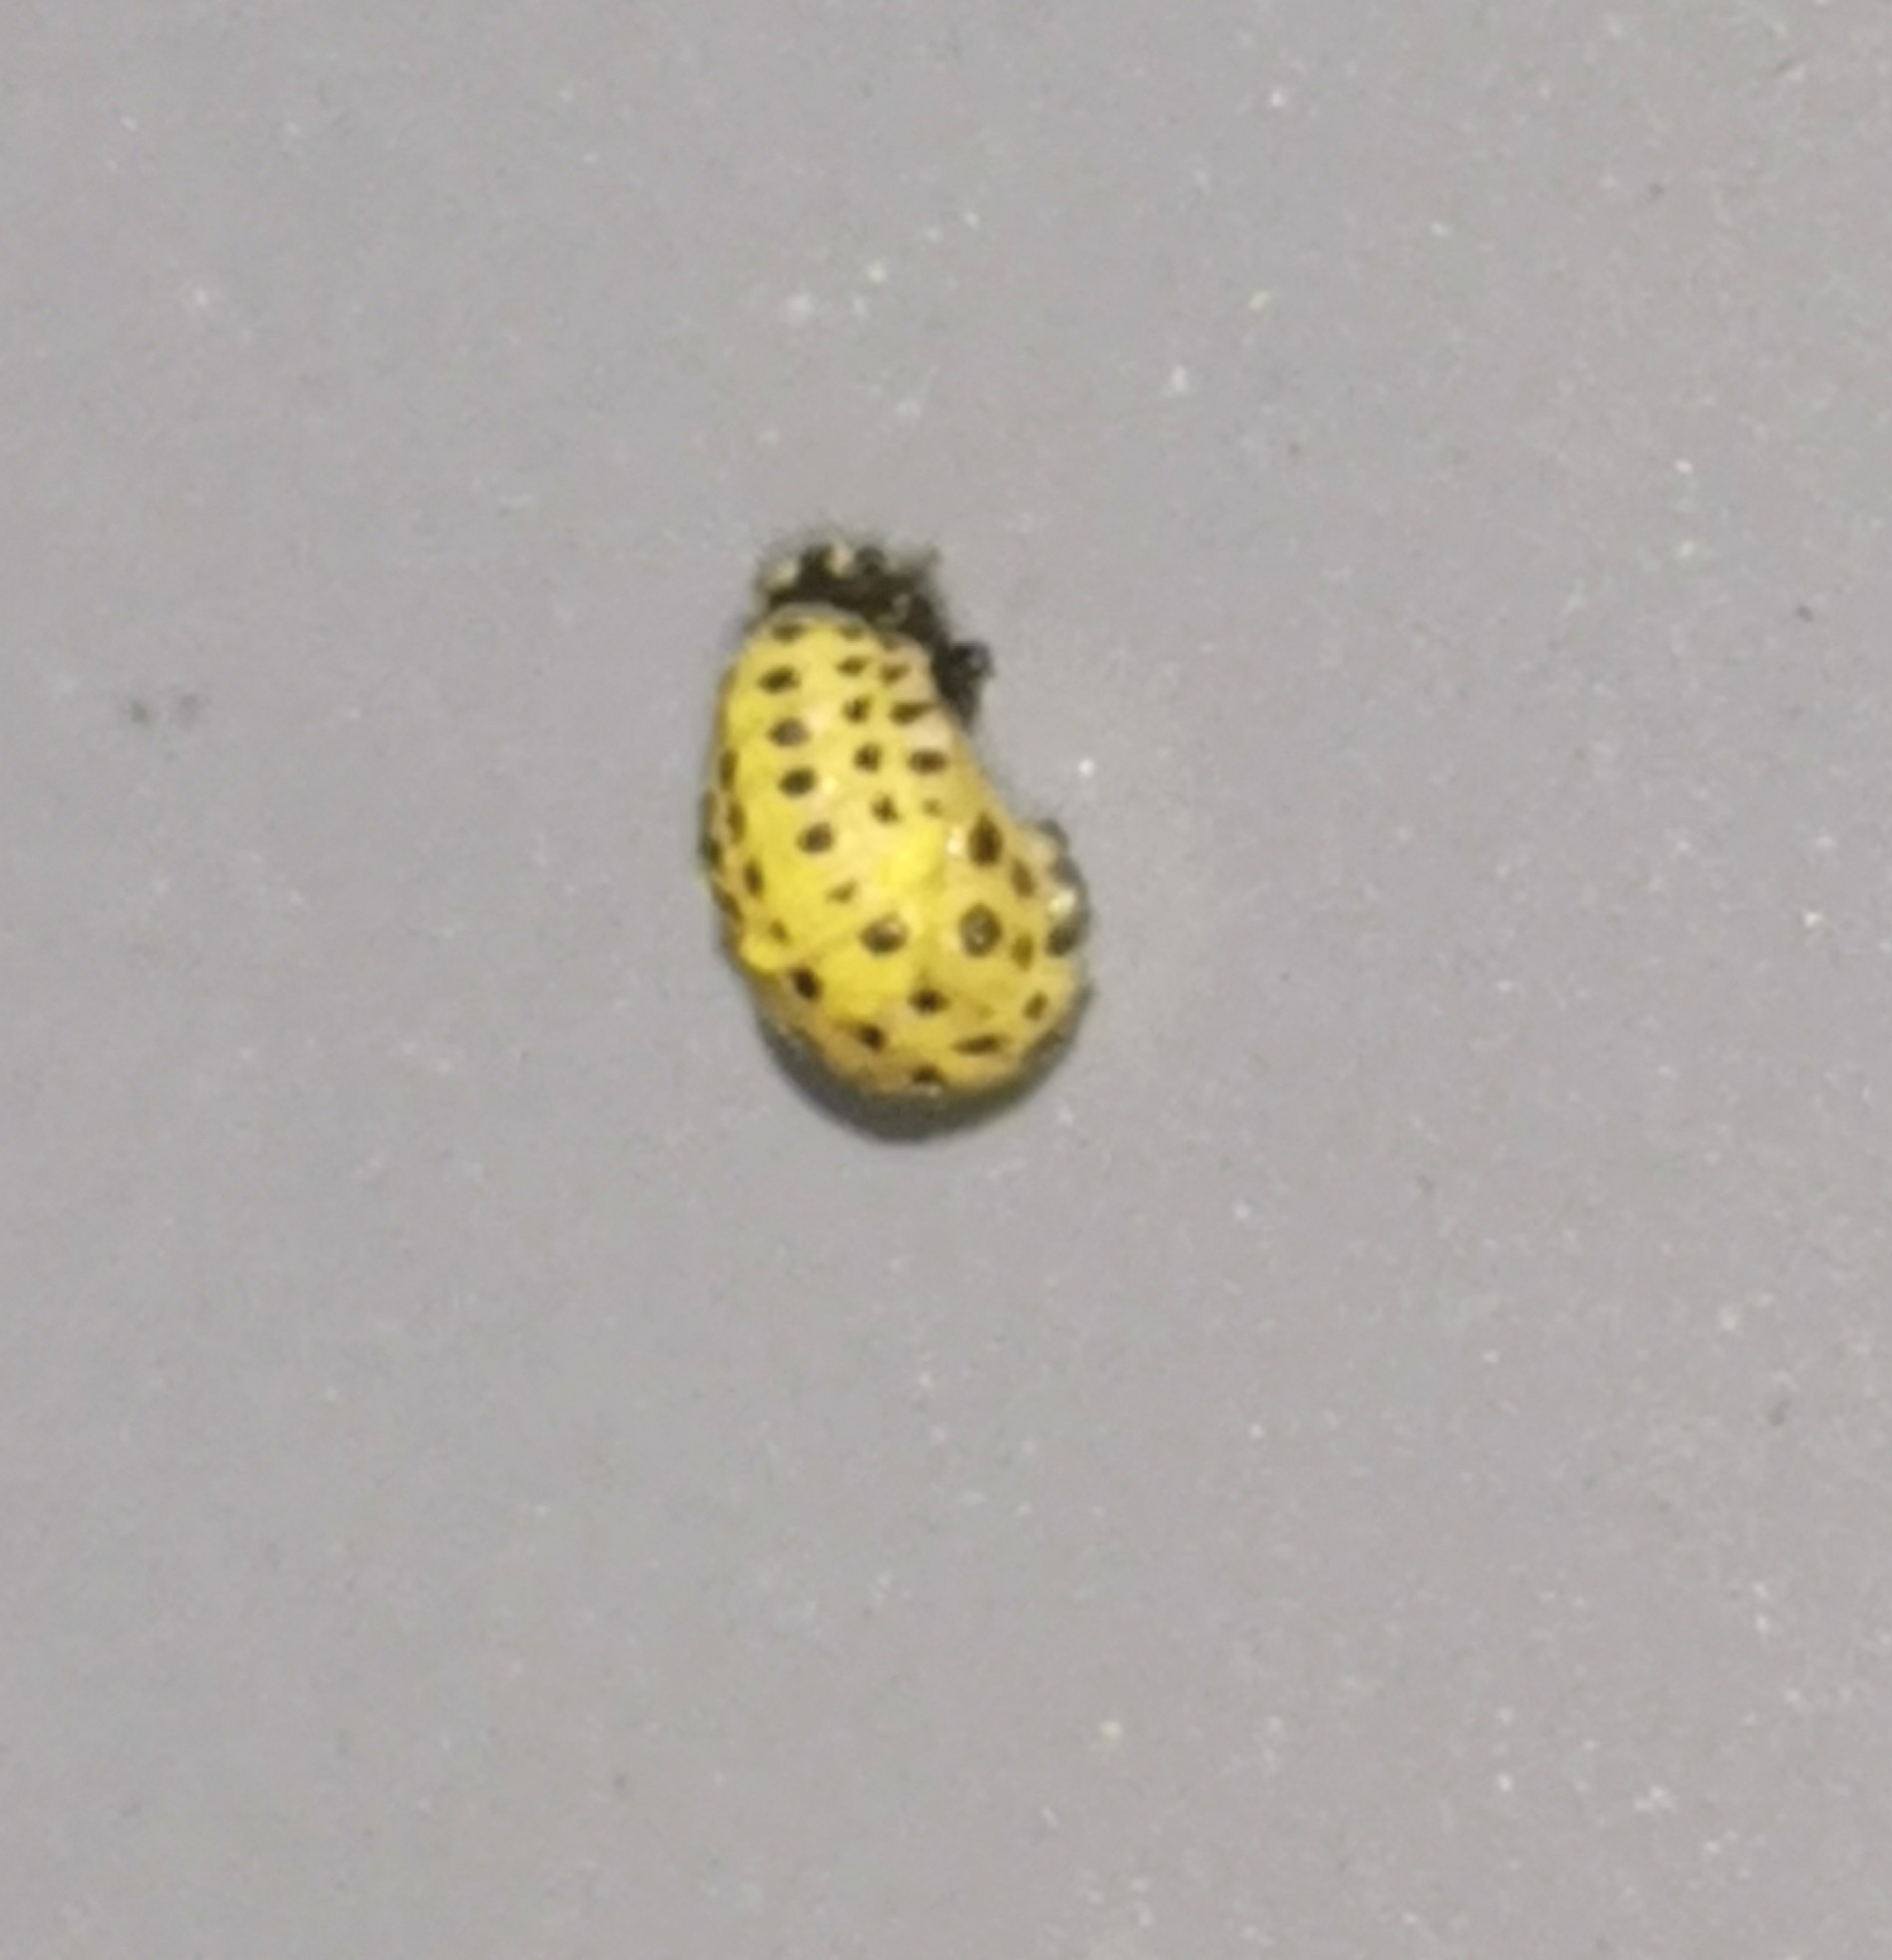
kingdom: Animalia
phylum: Arthropoda
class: Insecta
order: Coleoptera
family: Coccinellidae
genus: Psyllobora
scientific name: Psyllobora vigintiduopunctata
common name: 22-spot ladybird
